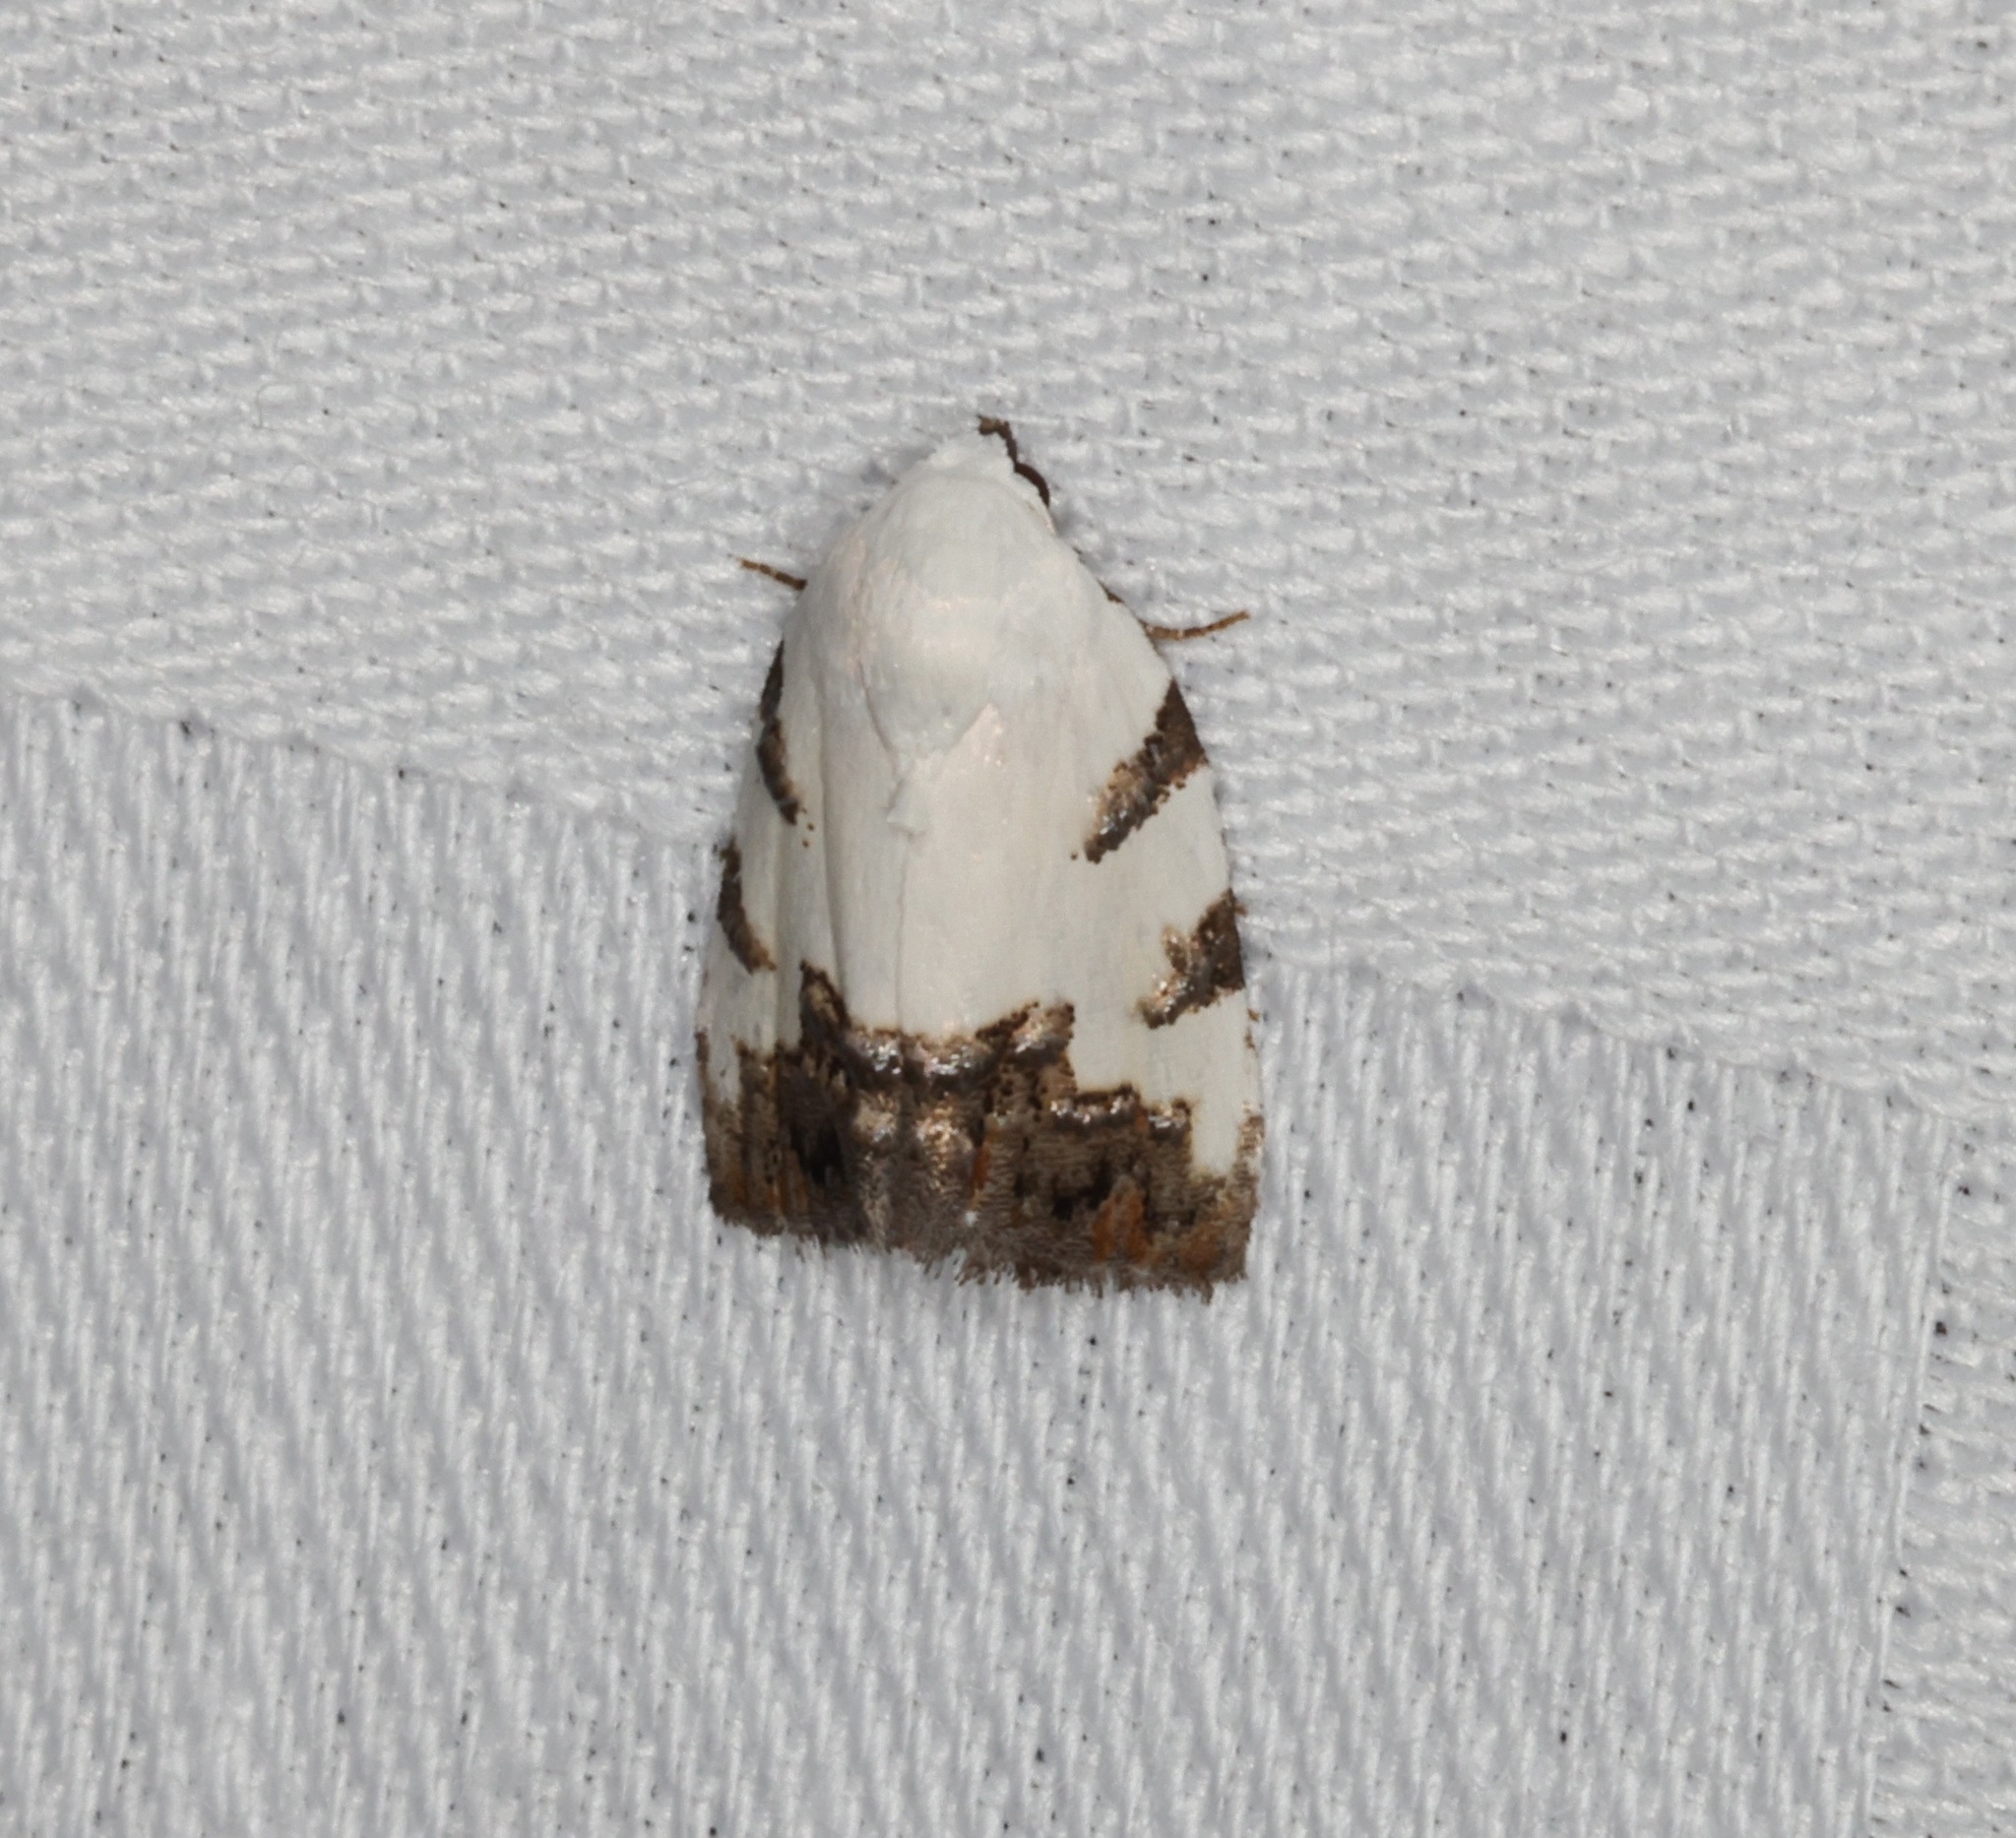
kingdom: Animalia
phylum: Arthropoda
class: Insecta
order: Lepidoptera
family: Nolidae
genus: Casminola
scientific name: Casminola johannstumpfi
